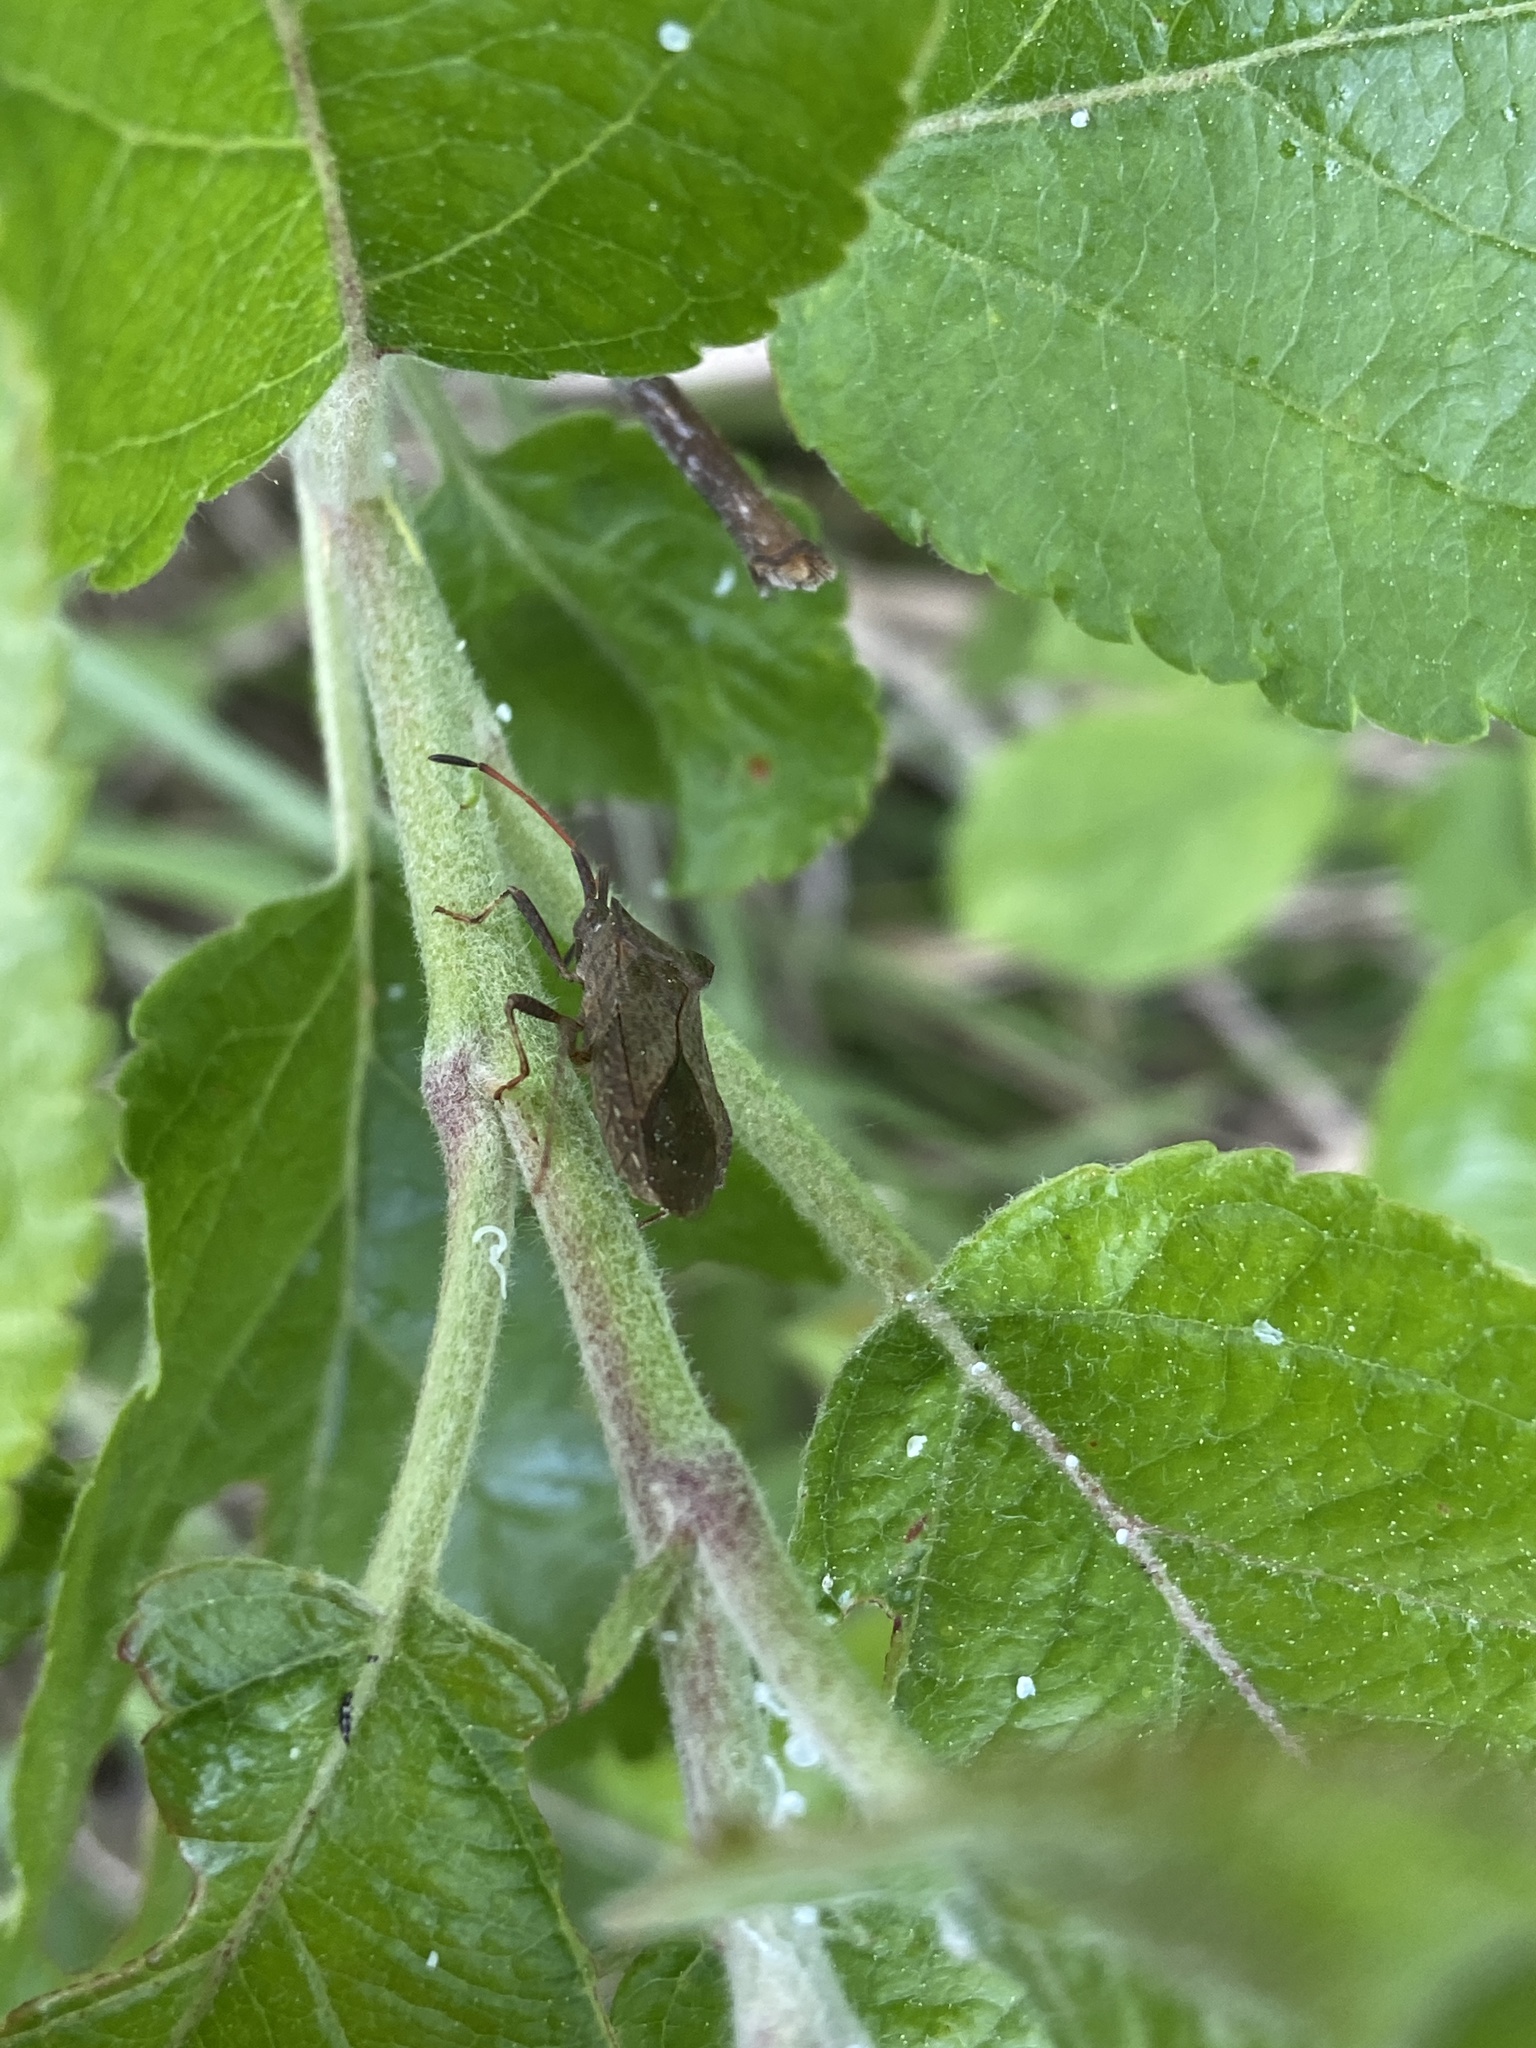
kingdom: Animalia
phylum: Arthropoda
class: Insecta
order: Hemiptera
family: Coreidae
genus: Coreus
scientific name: Coreus marginatus
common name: Dock bug
